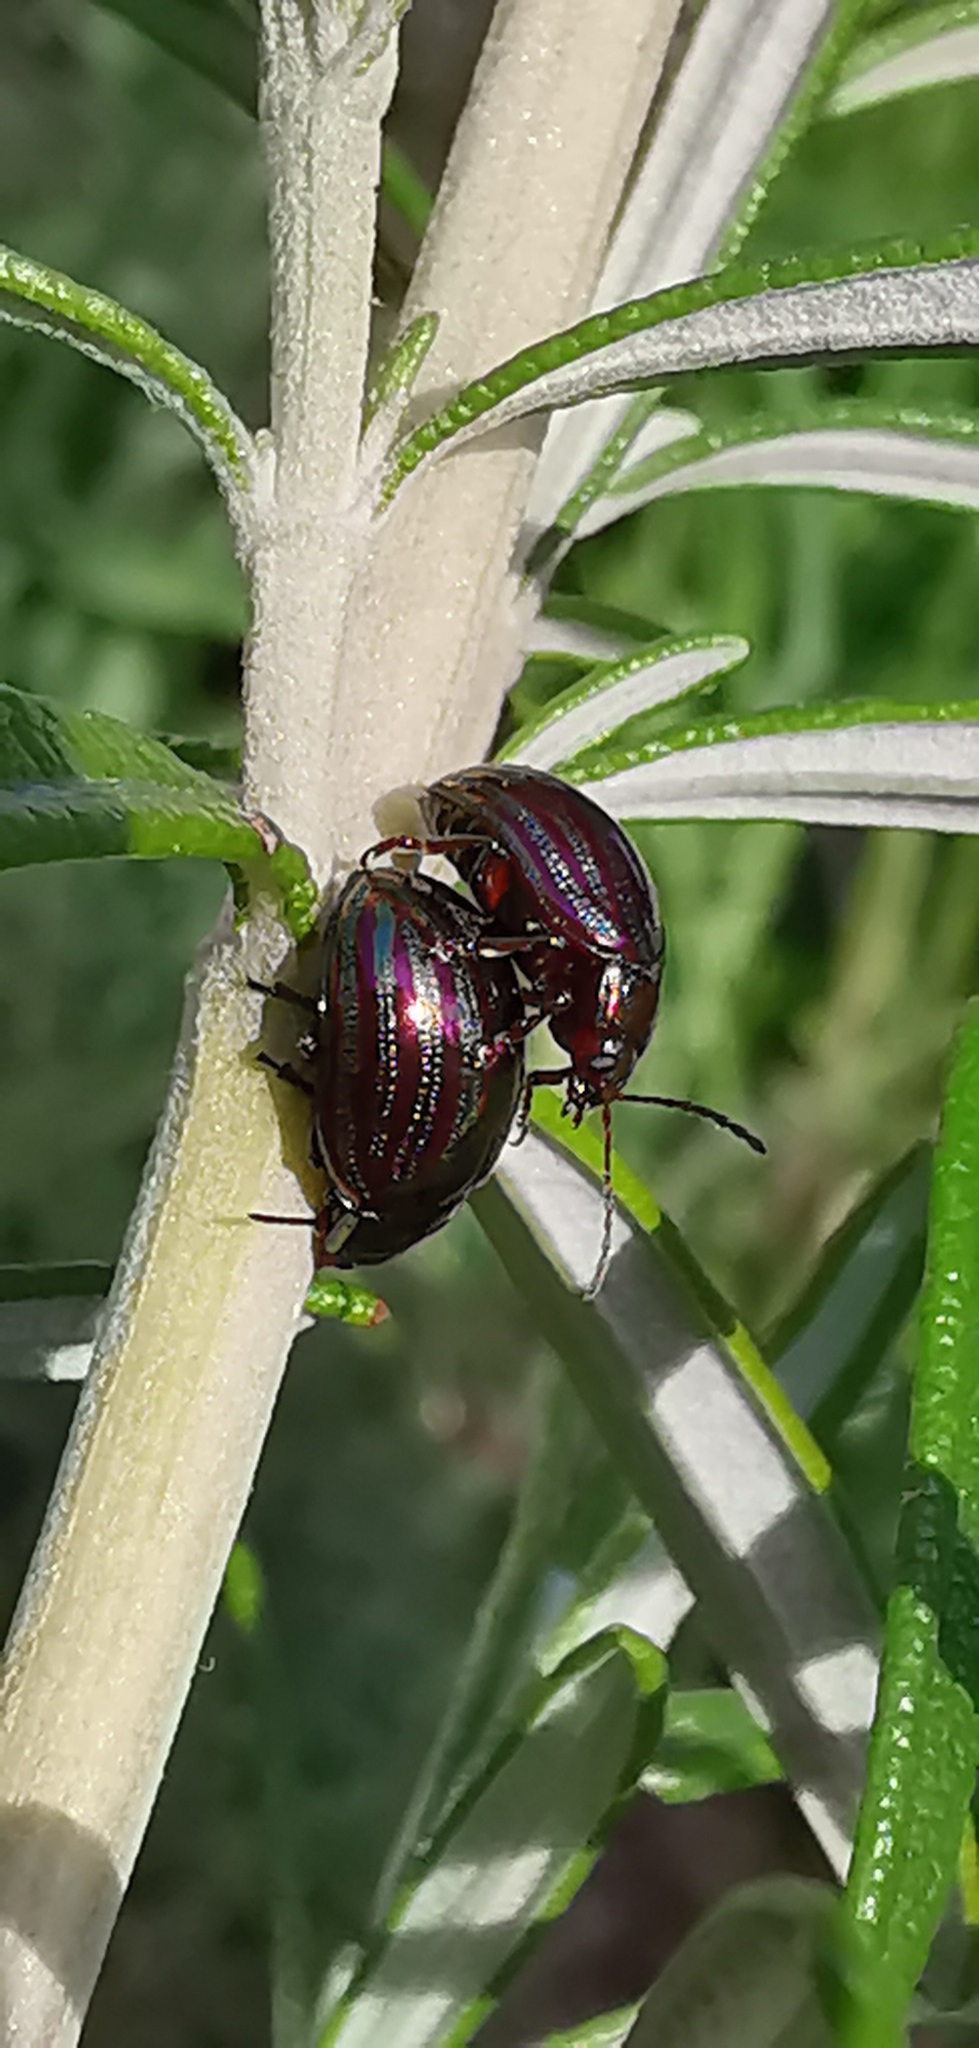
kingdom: Animalia
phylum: Arthropoda
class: Insecta
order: Coleoptera
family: Chrysomelidae
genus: Chrysolina
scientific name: Chrysolina americana
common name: Rosemary beetle
